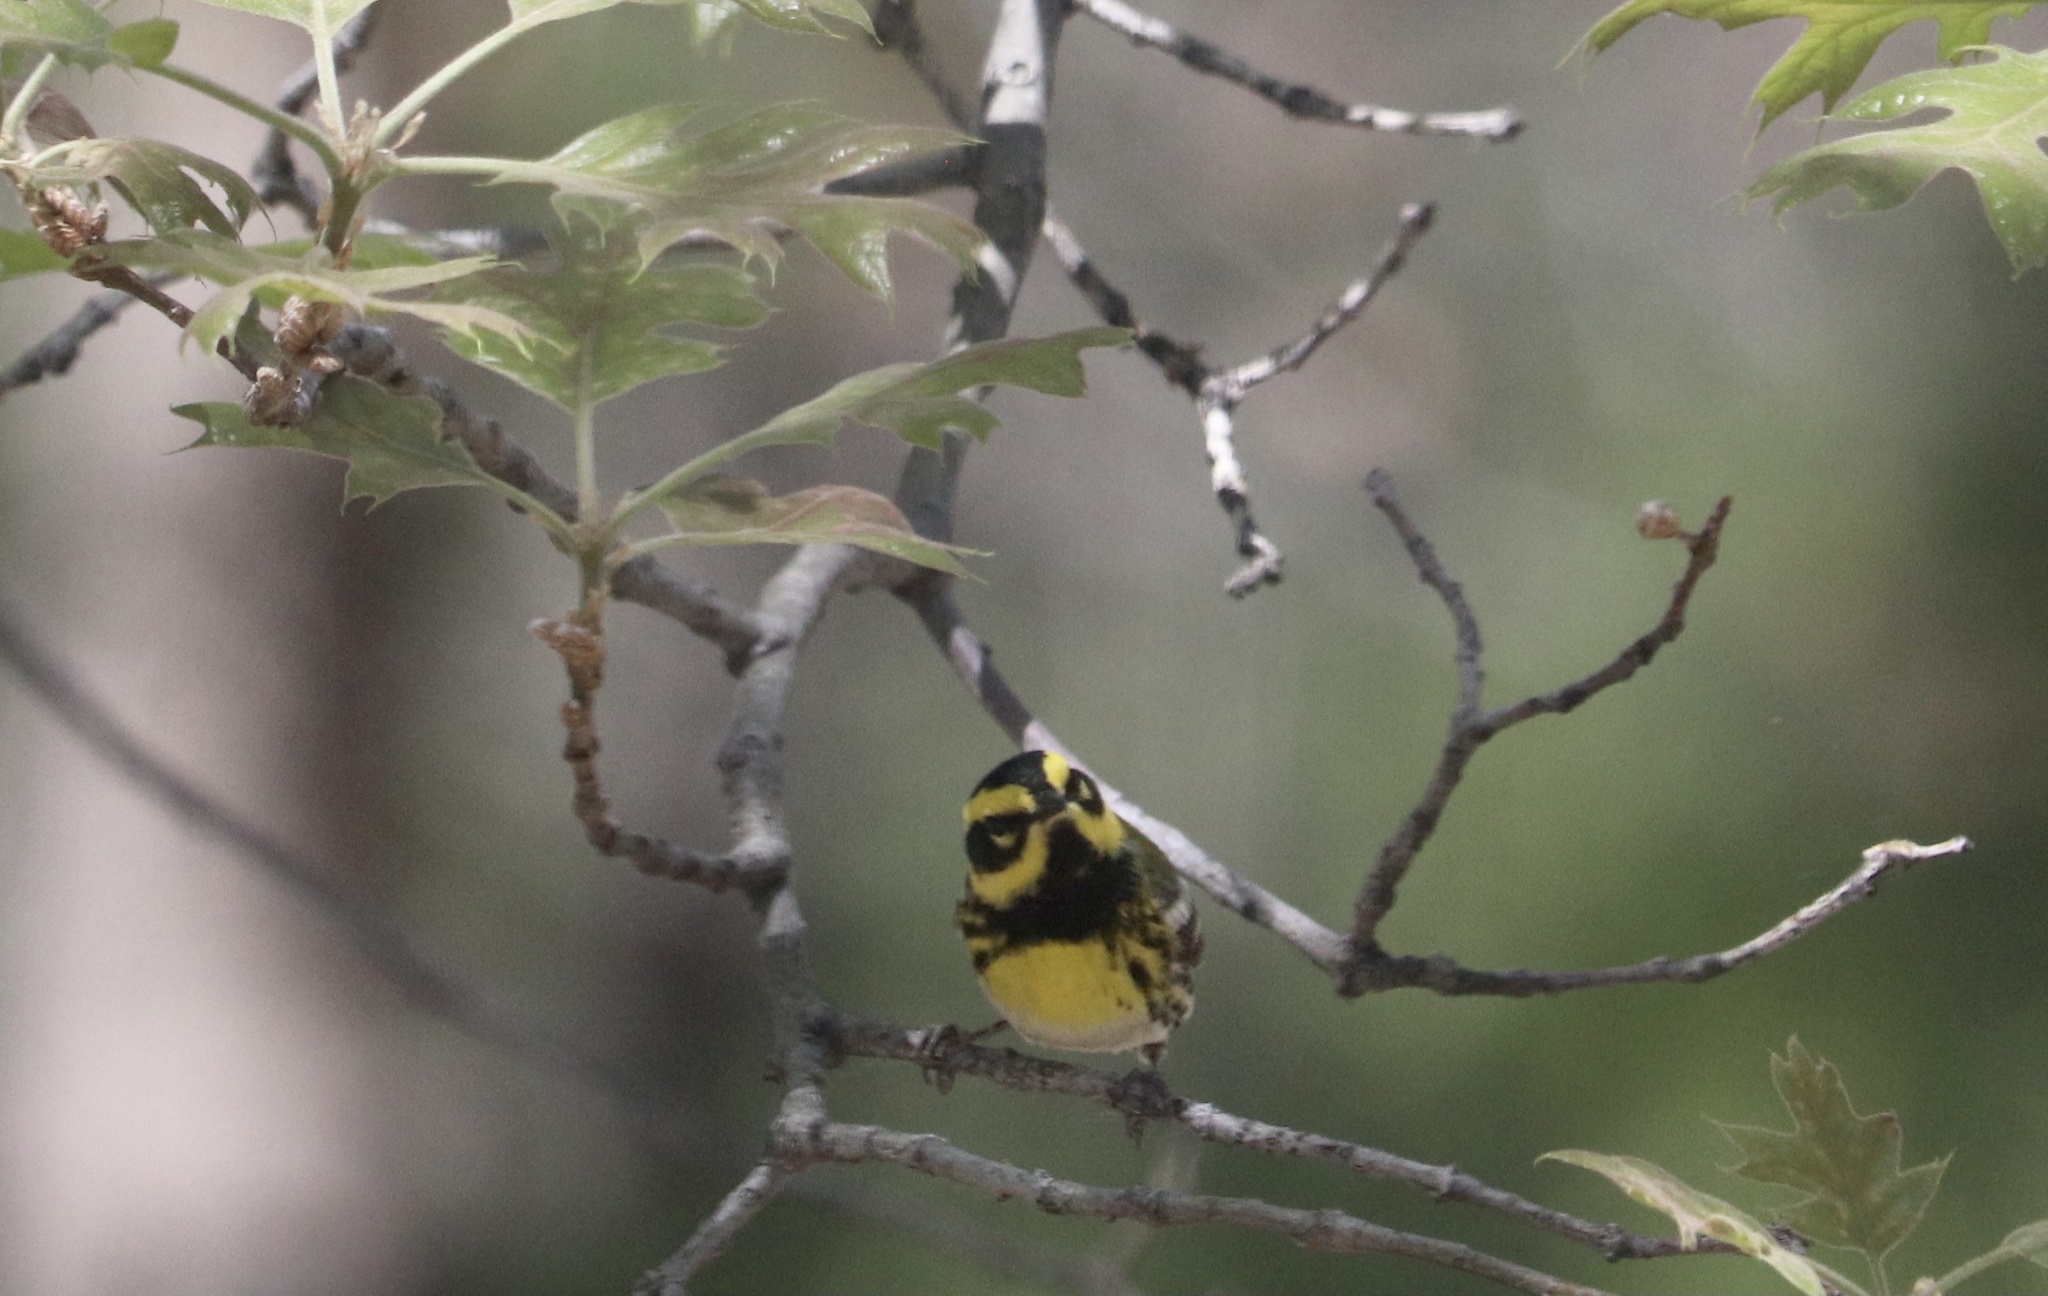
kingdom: Animalia
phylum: Chordata
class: Aves
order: Passeriformes
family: Parulidae
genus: Setophaga
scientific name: Setophaga townsendi
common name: Townsend's warbler
